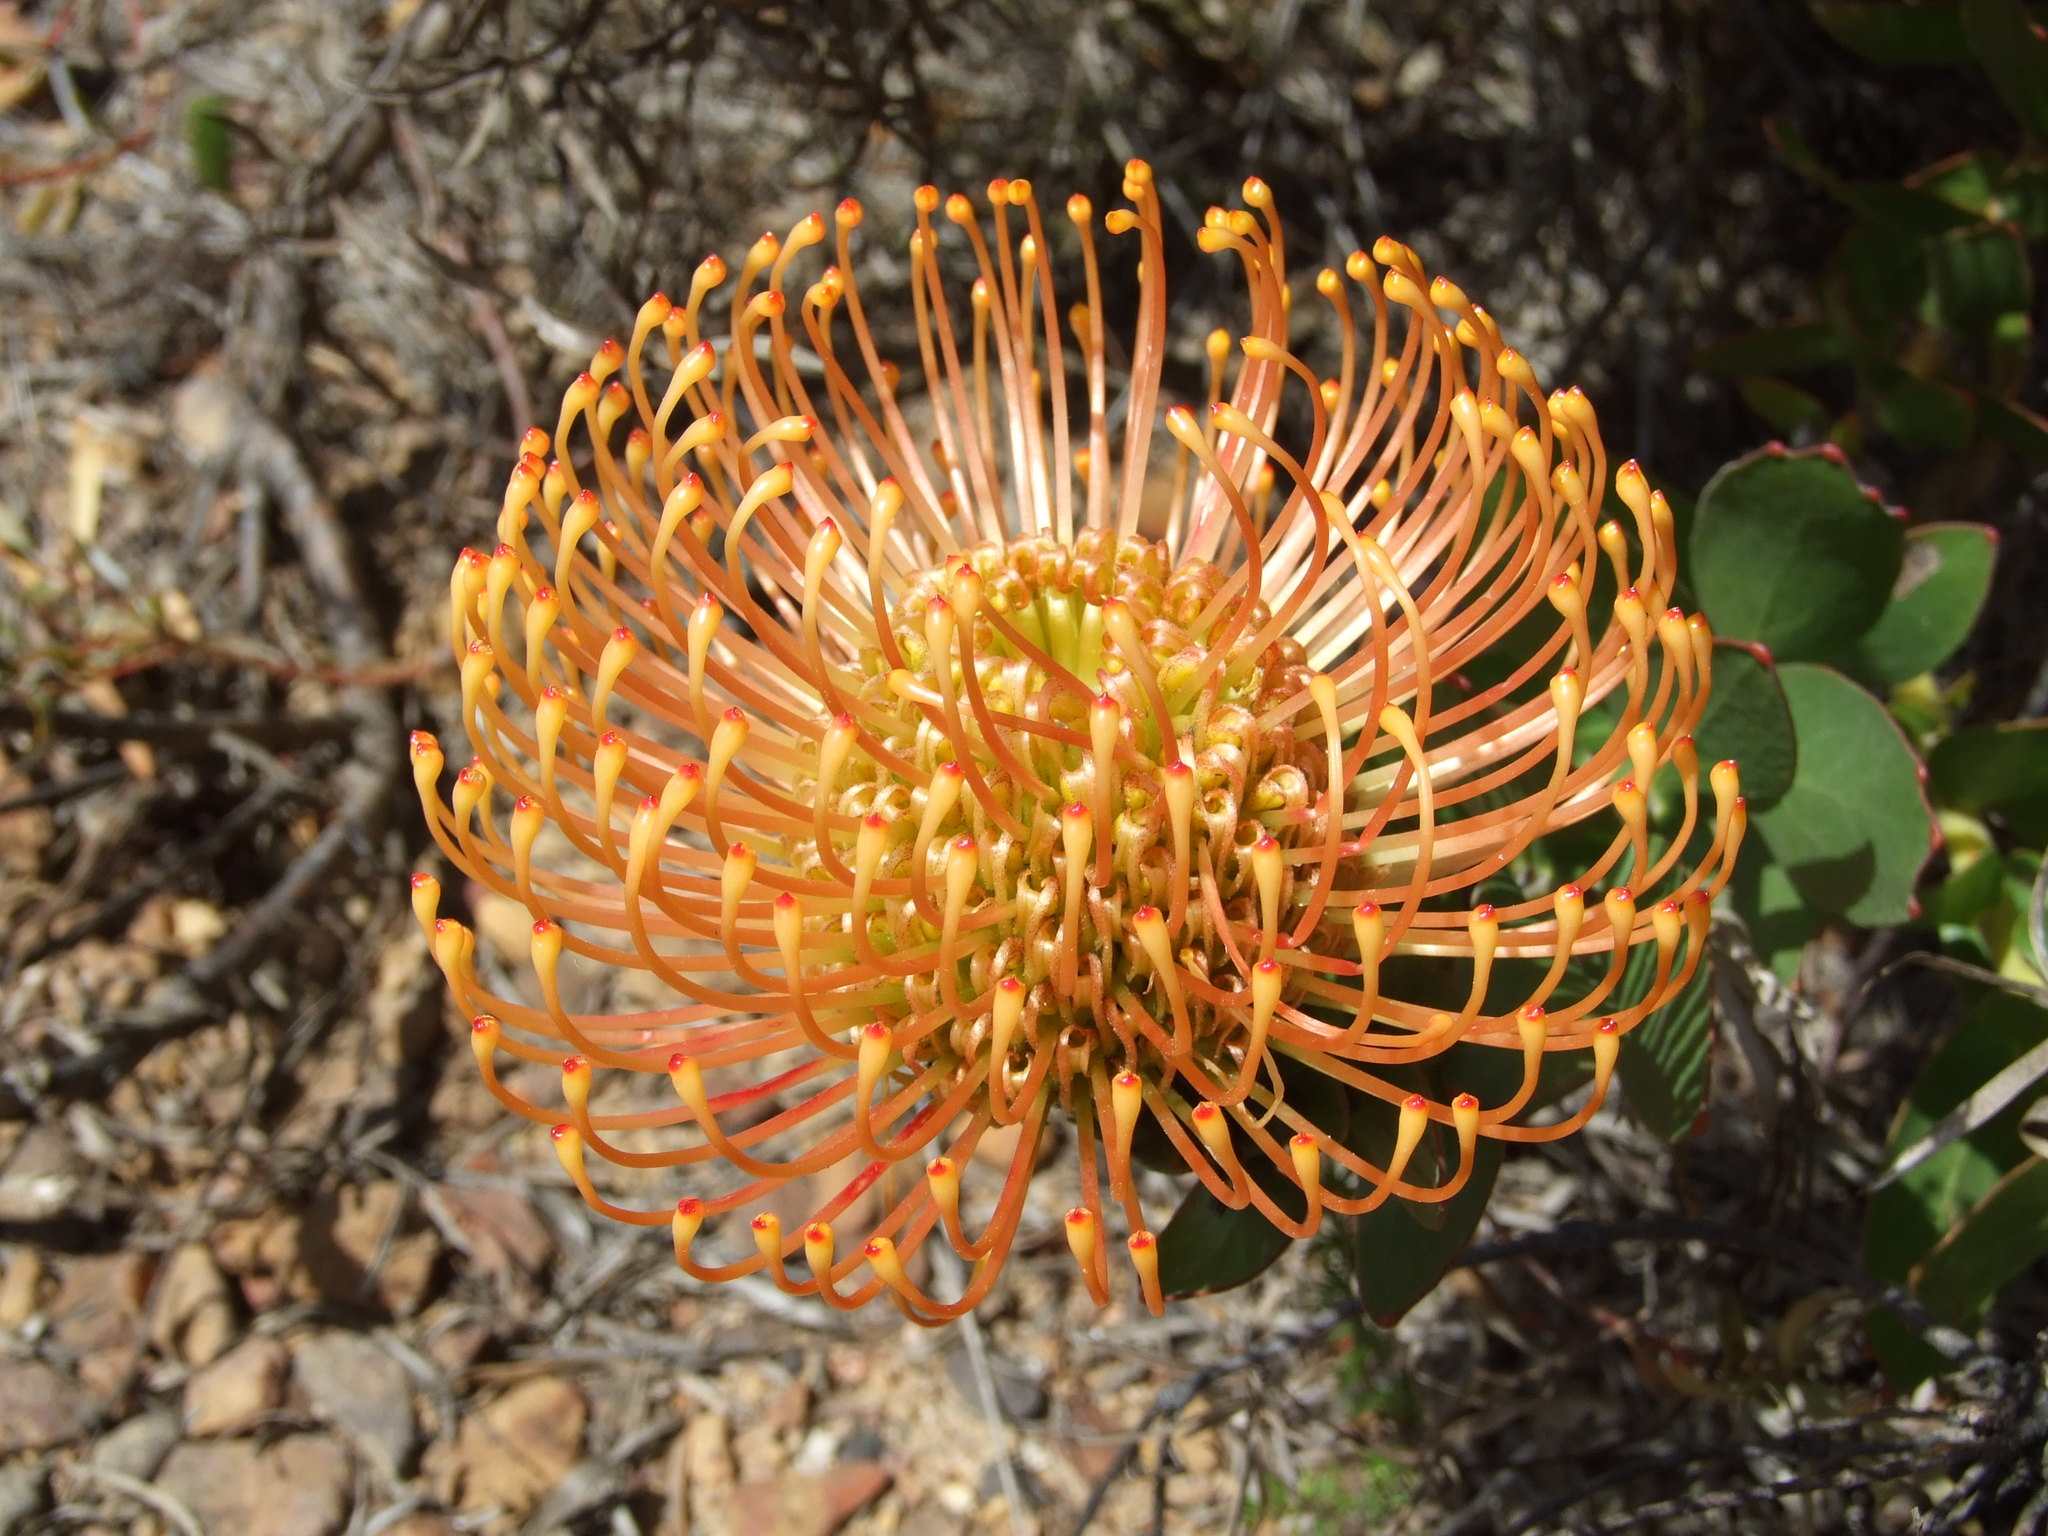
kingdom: Plantae
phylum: Tracheophyta
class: Magnoliopsida
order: Proteales
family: Proteaceae
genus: Leucospermum
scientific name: Leucospermum cordifolium
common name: Red pincushion-protea
